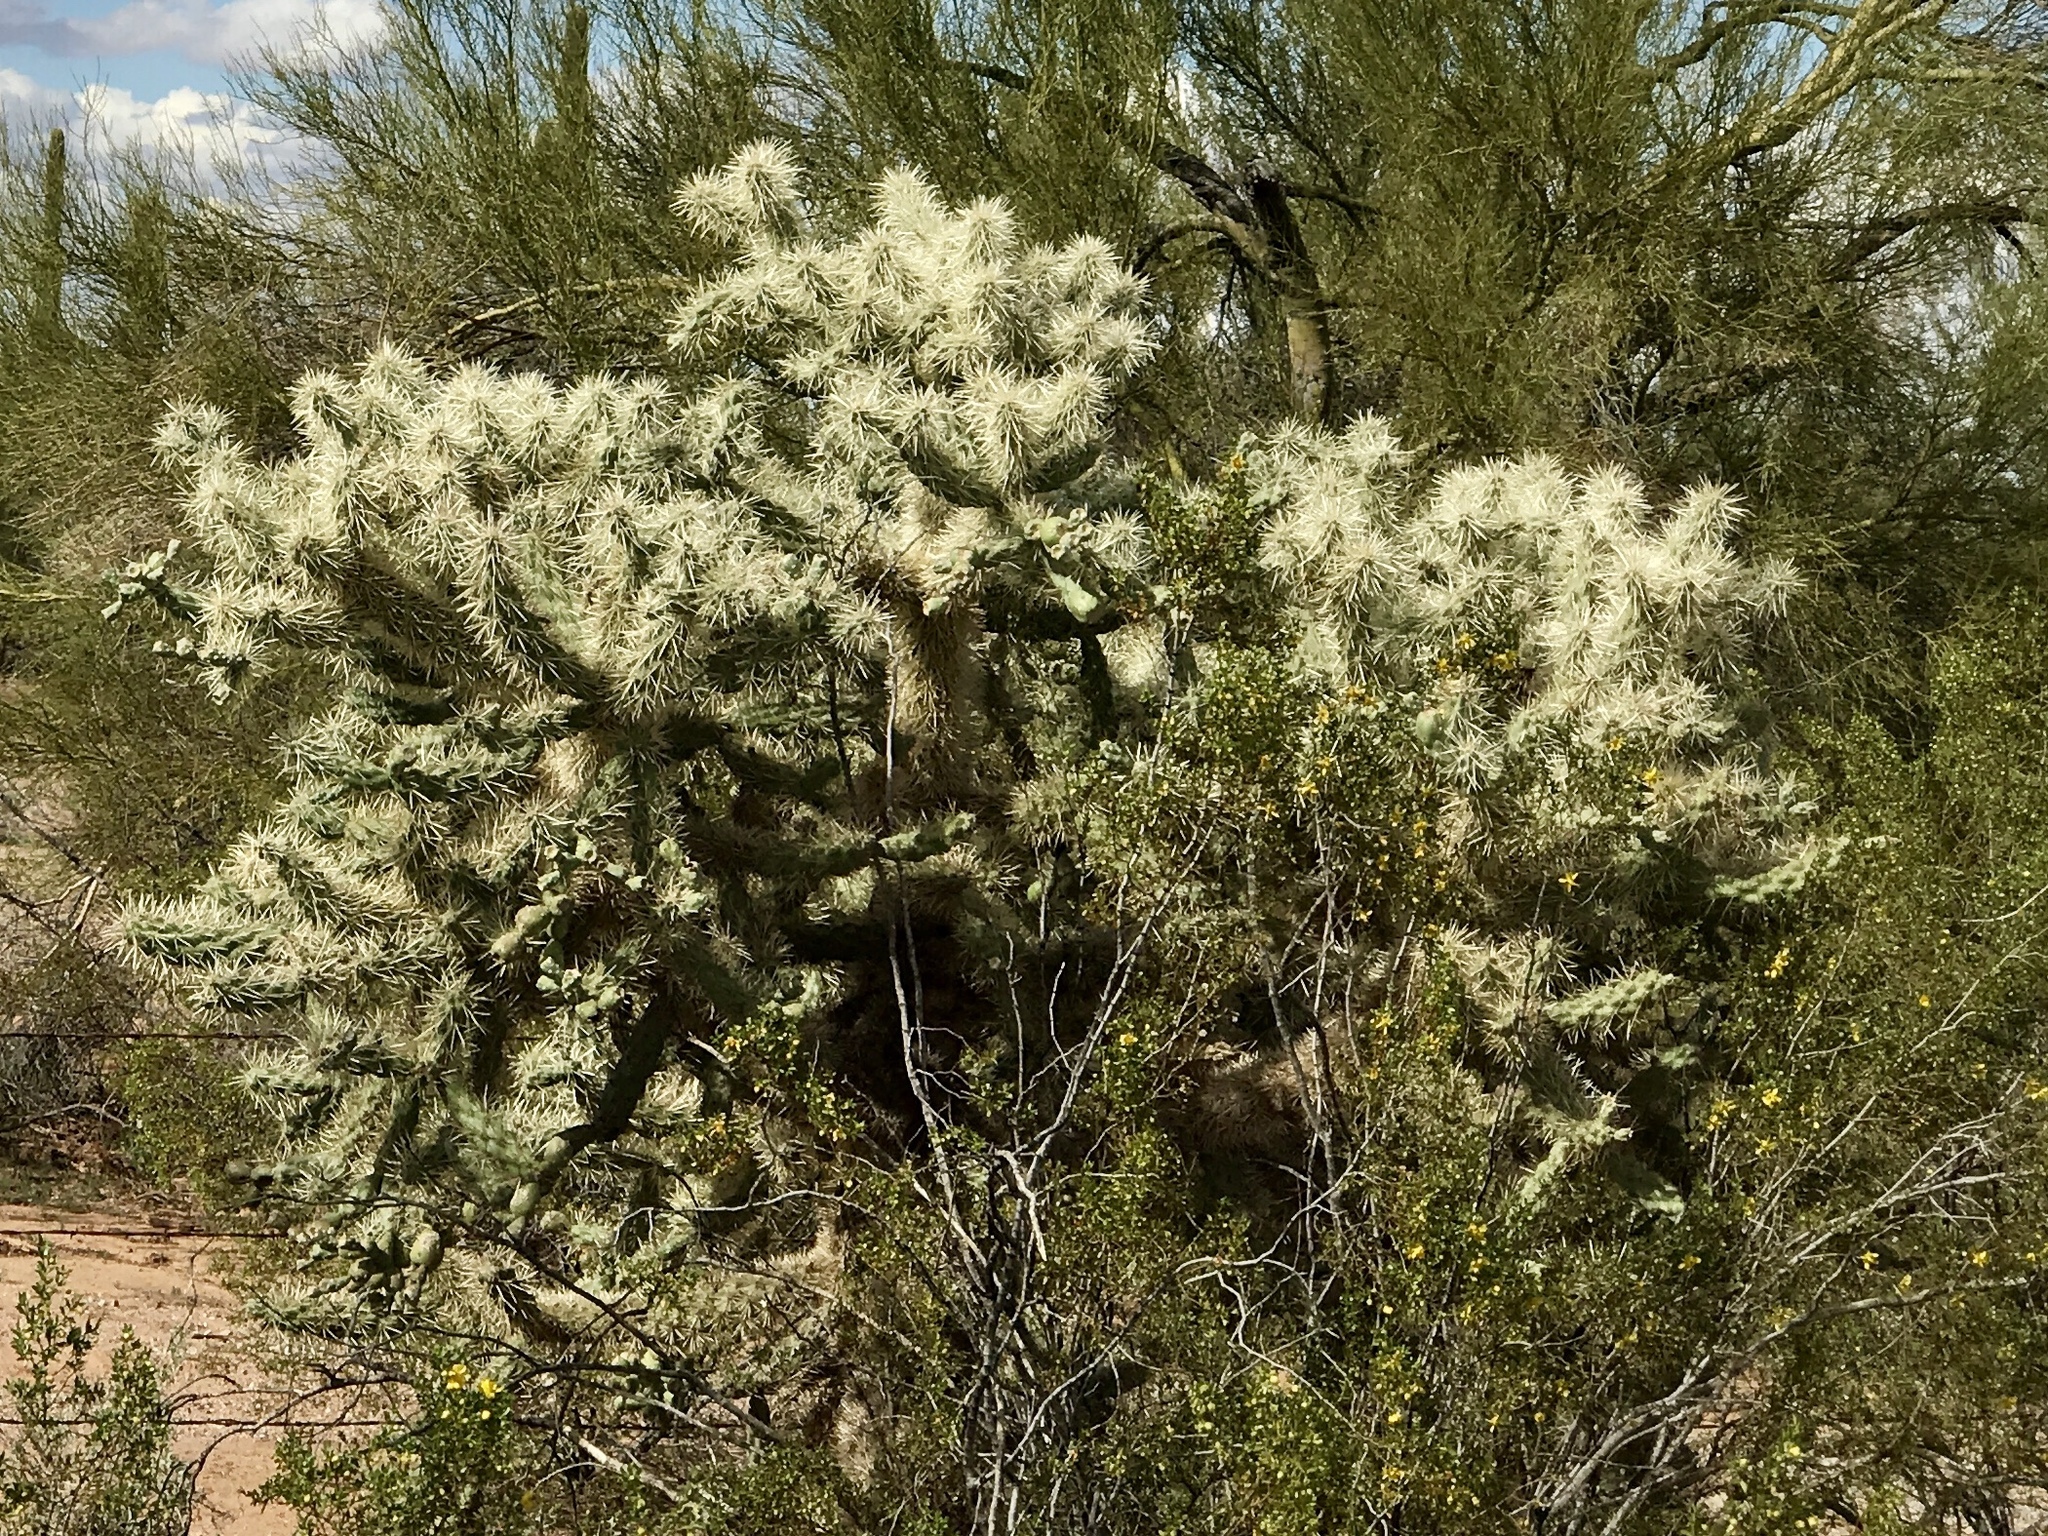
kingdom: Plantae
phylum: Tracheophyta
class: Magnoliopsida
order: Caryophyllales
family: Cactaceae
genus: Cylindropuntia
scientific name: Cylindropuntia fulgida
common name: Jumping cholla
